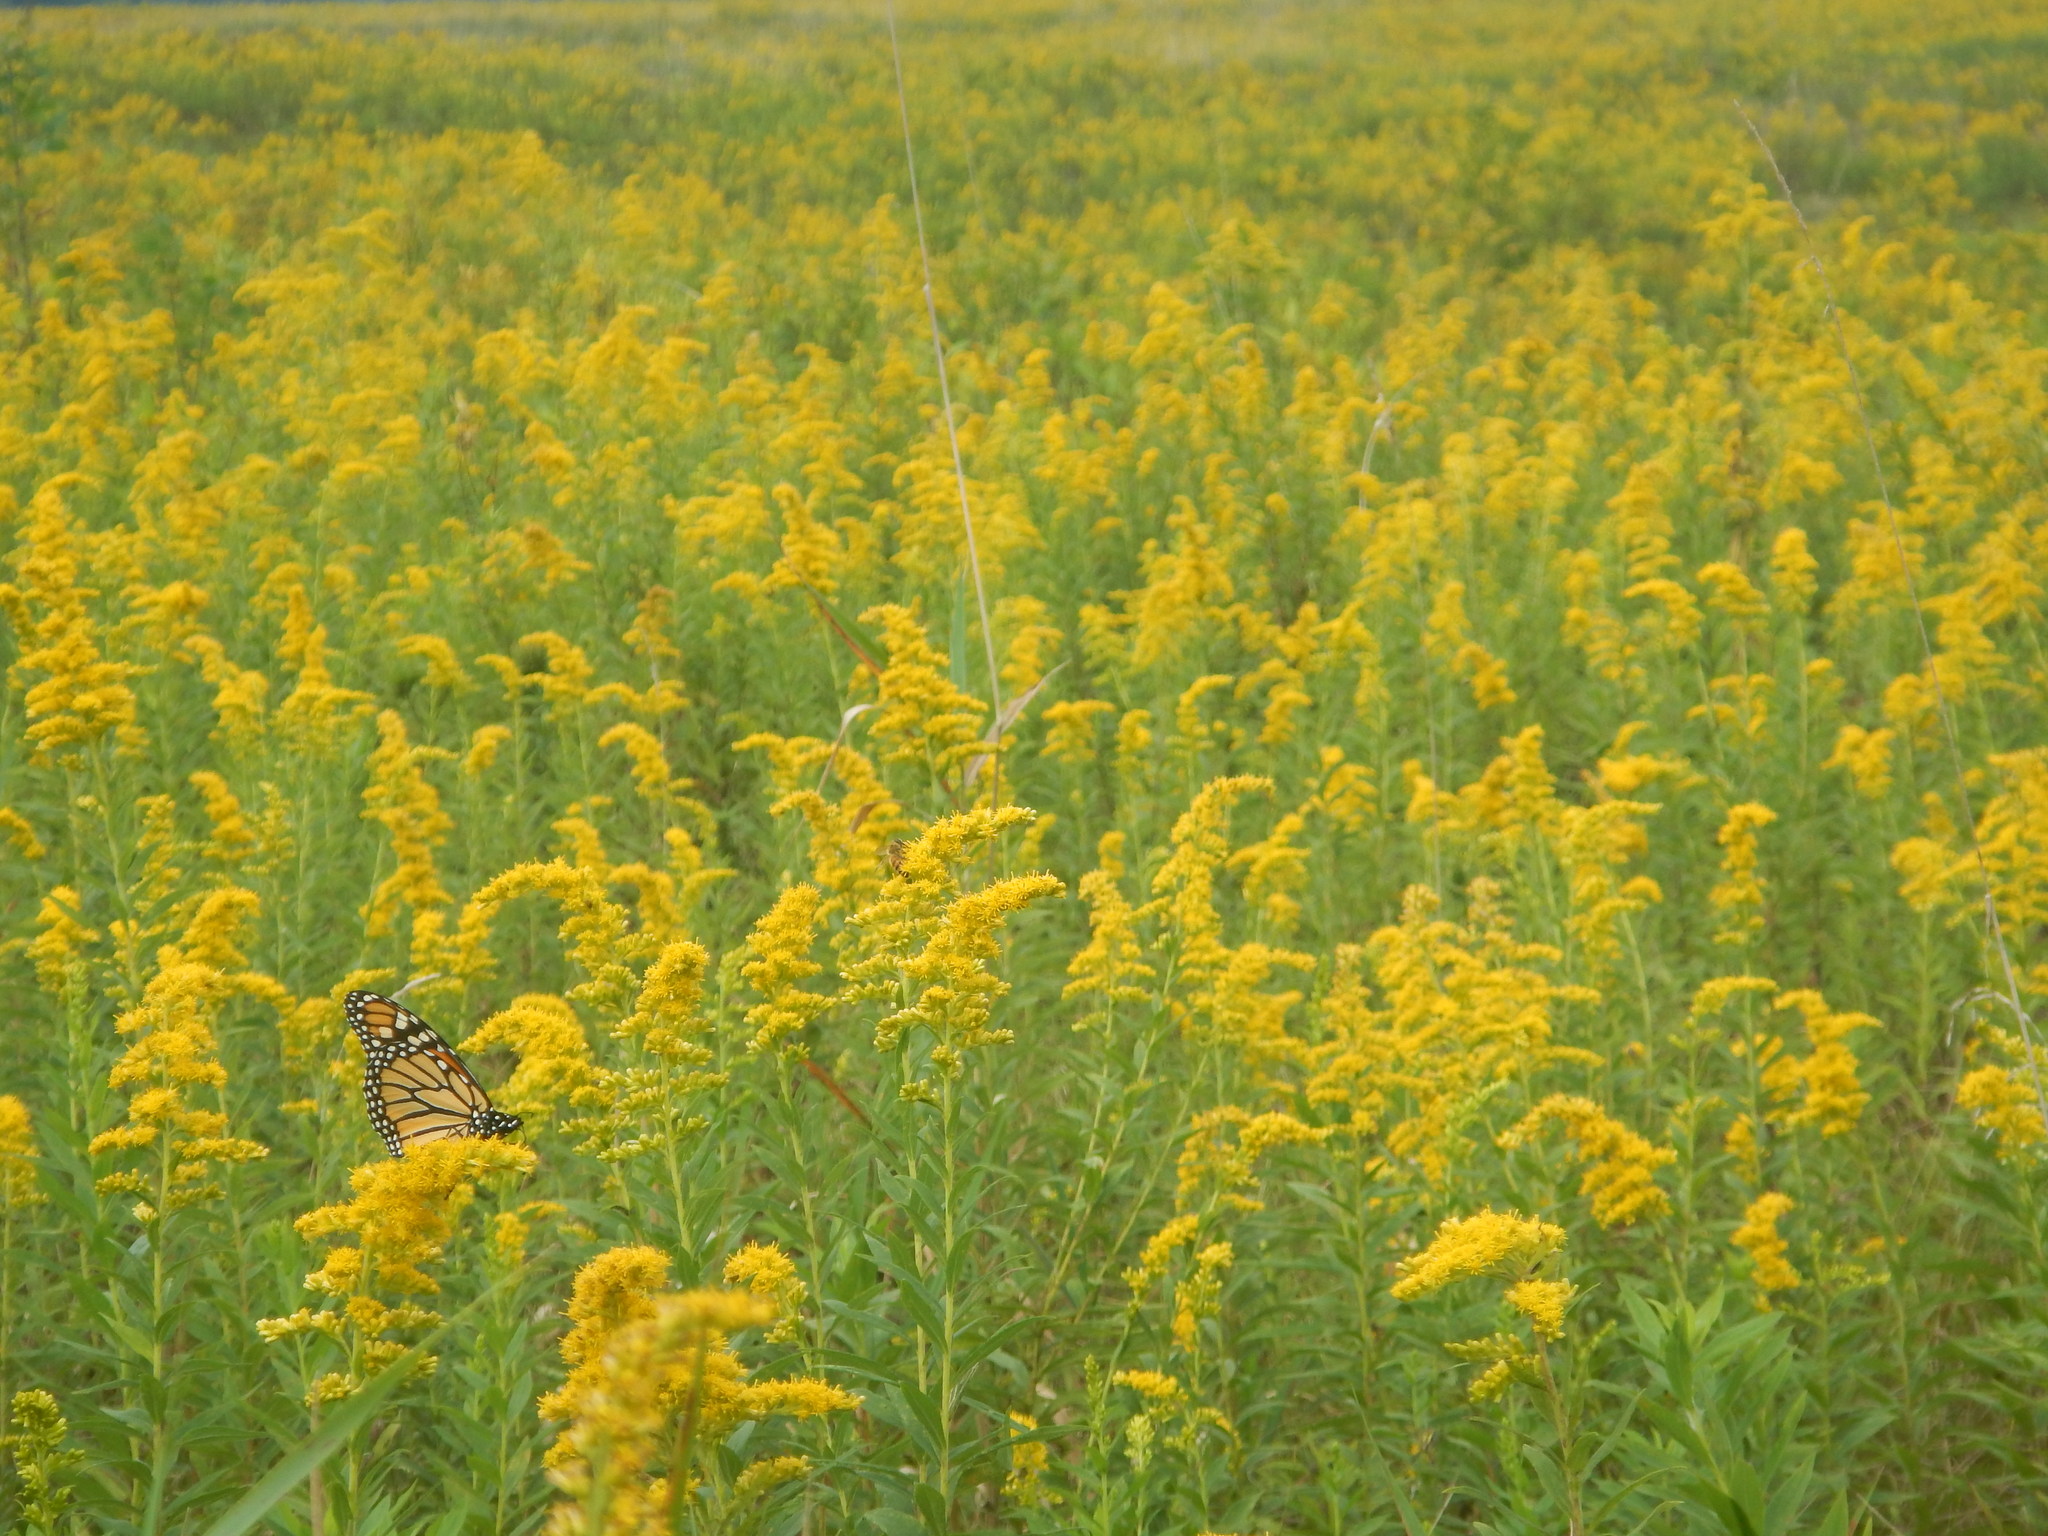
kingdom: Animalia
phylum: Arthropoda
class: Insecta
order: Lepidoptera
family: Nymphalidae
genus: Danaus
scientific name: Danaus plexippus
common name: Monarch
